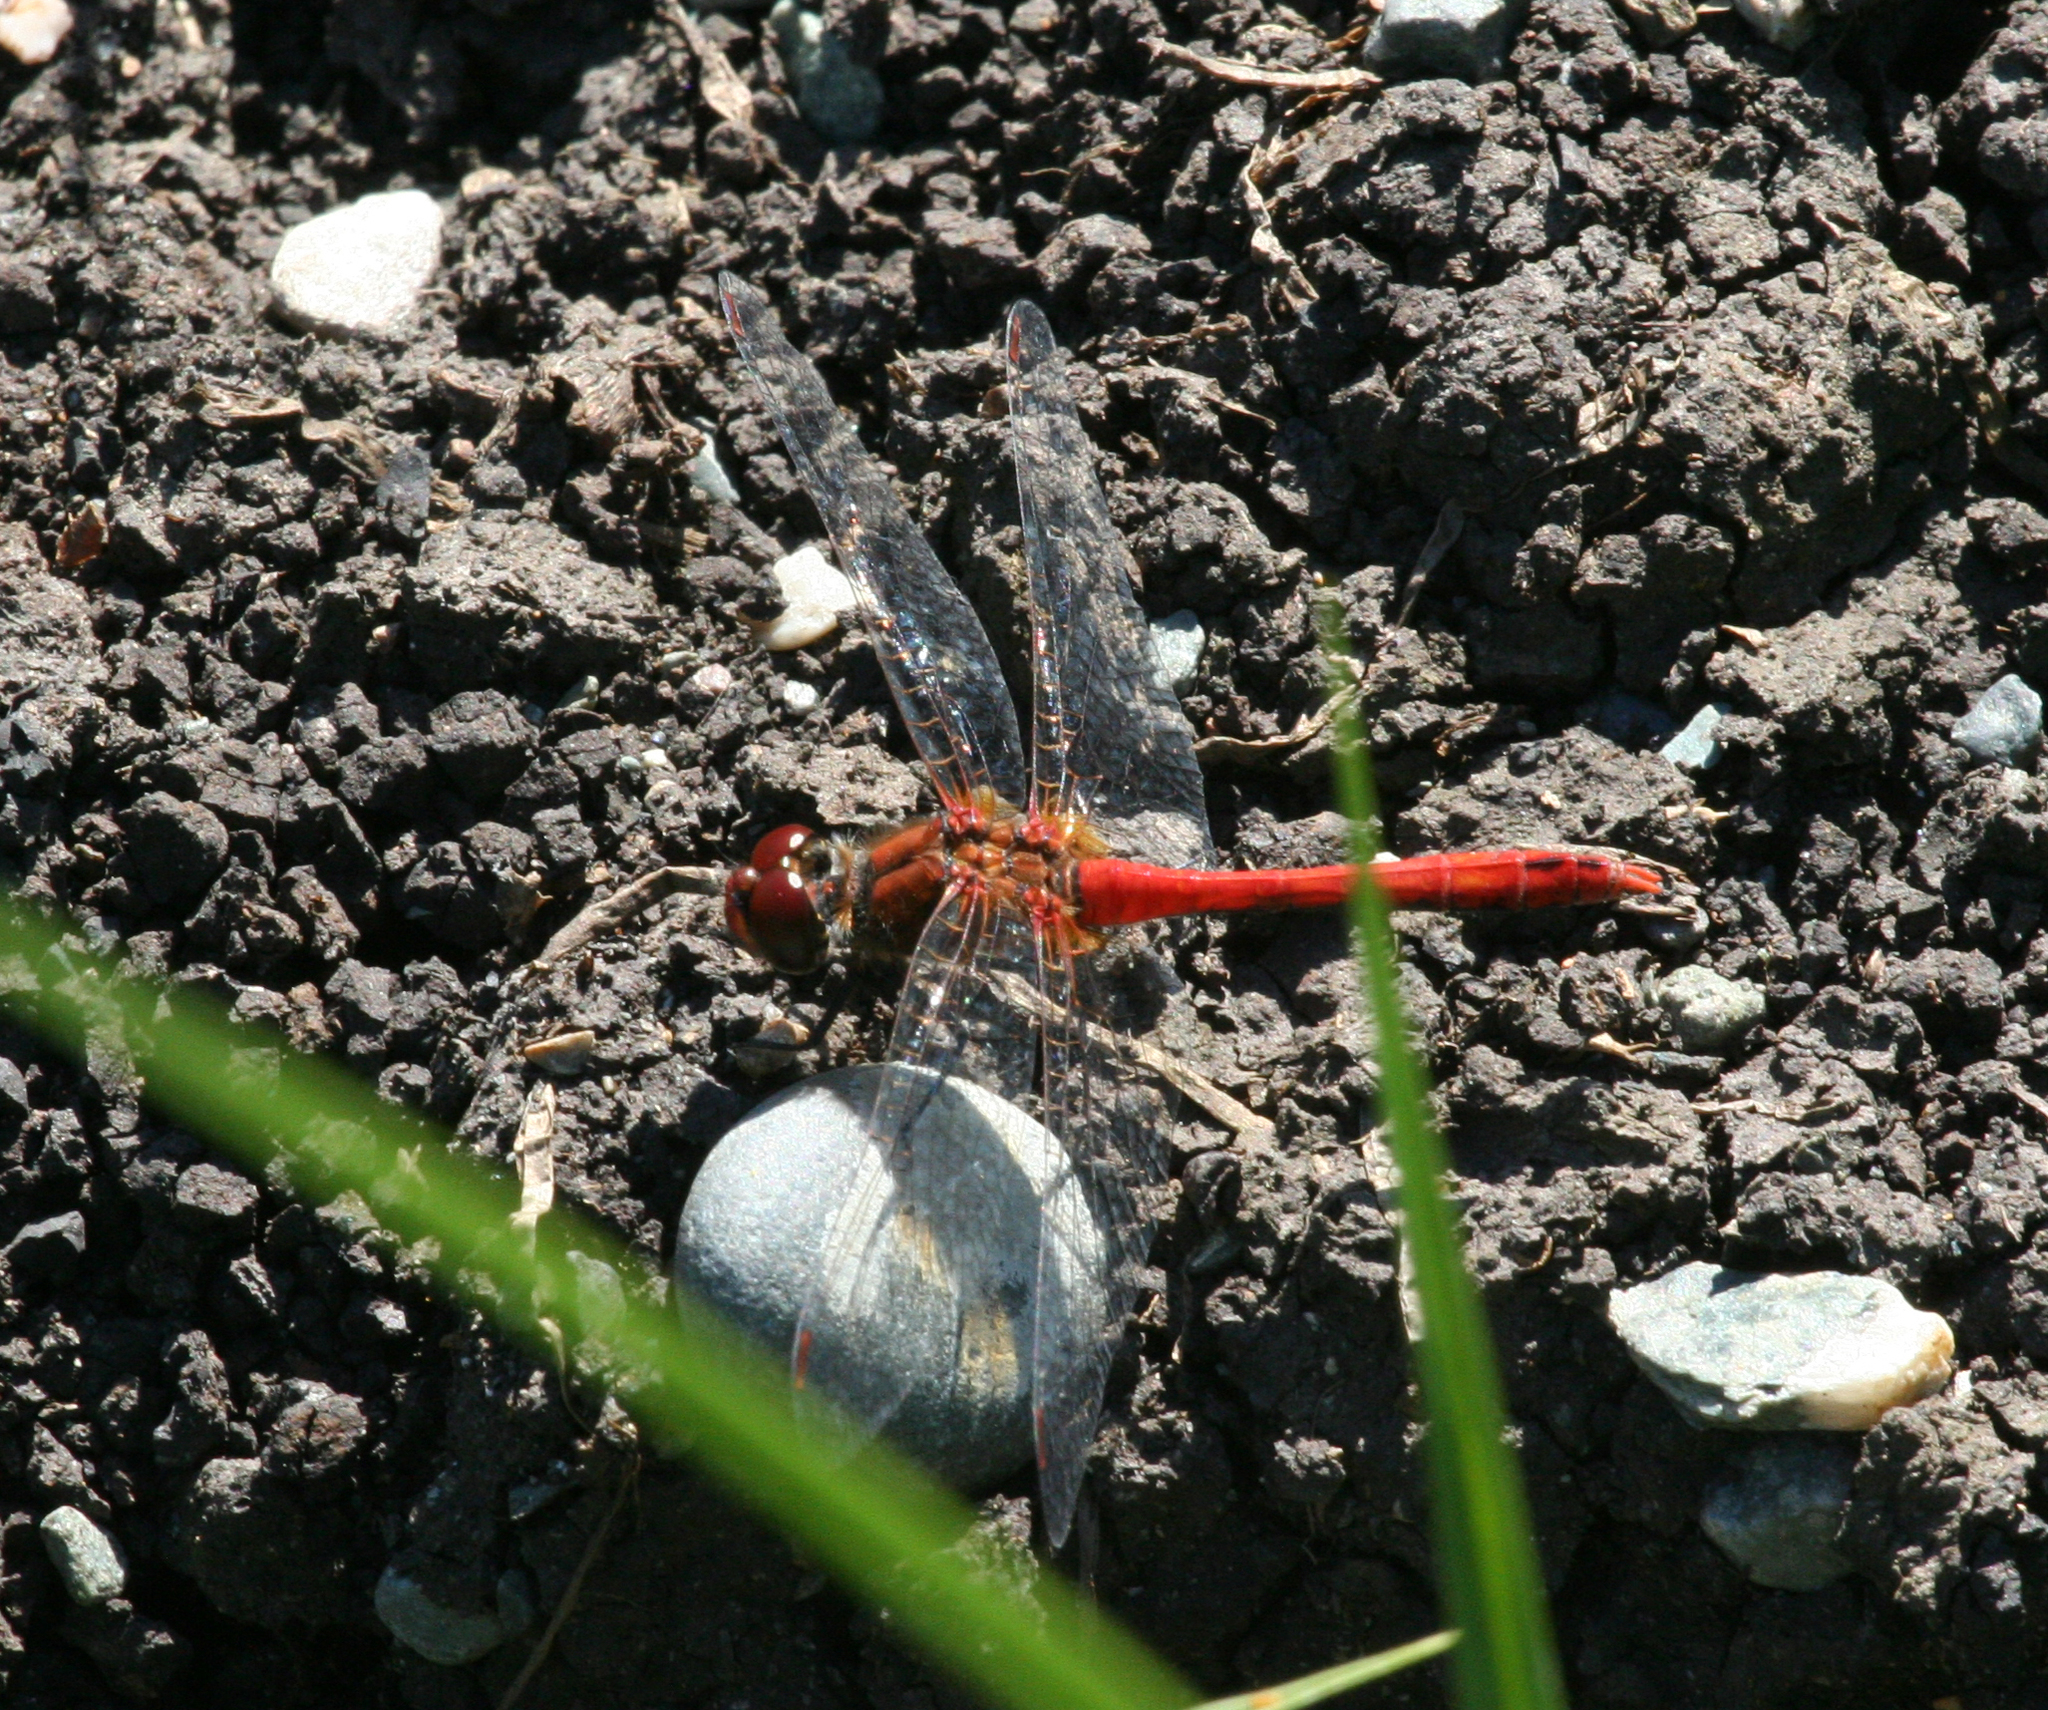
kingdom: Animalia
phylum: Arthropoda
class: Insecta
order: Odonata
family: Libellulidae
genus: Sympetrum
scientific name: Sympetrum sanguineum
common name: Ruddy darter
